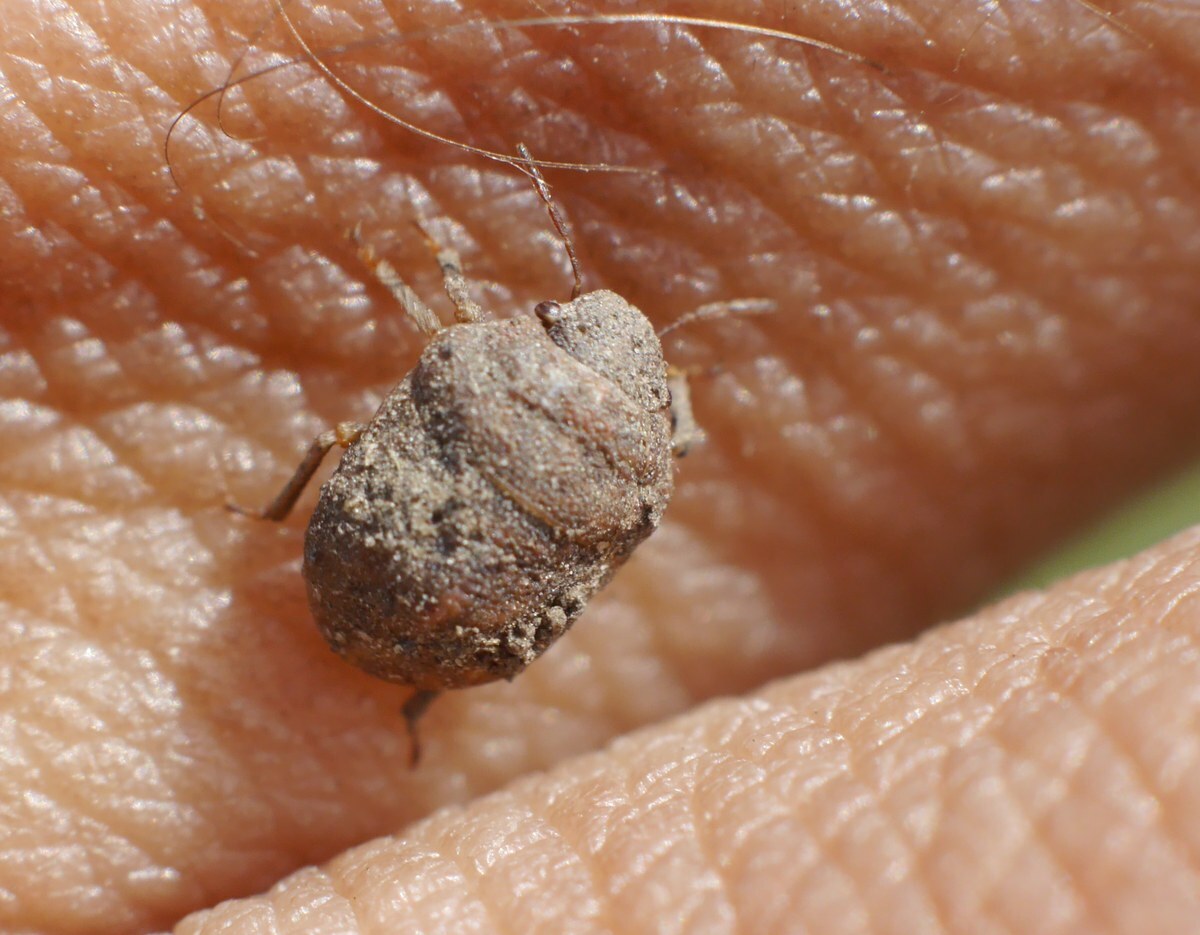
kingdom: Animalia
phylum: Arthropoda
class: Insecta
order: Hemiptera
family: Scutelleridae
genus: Psacasta
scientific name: Psacasta neglecta
